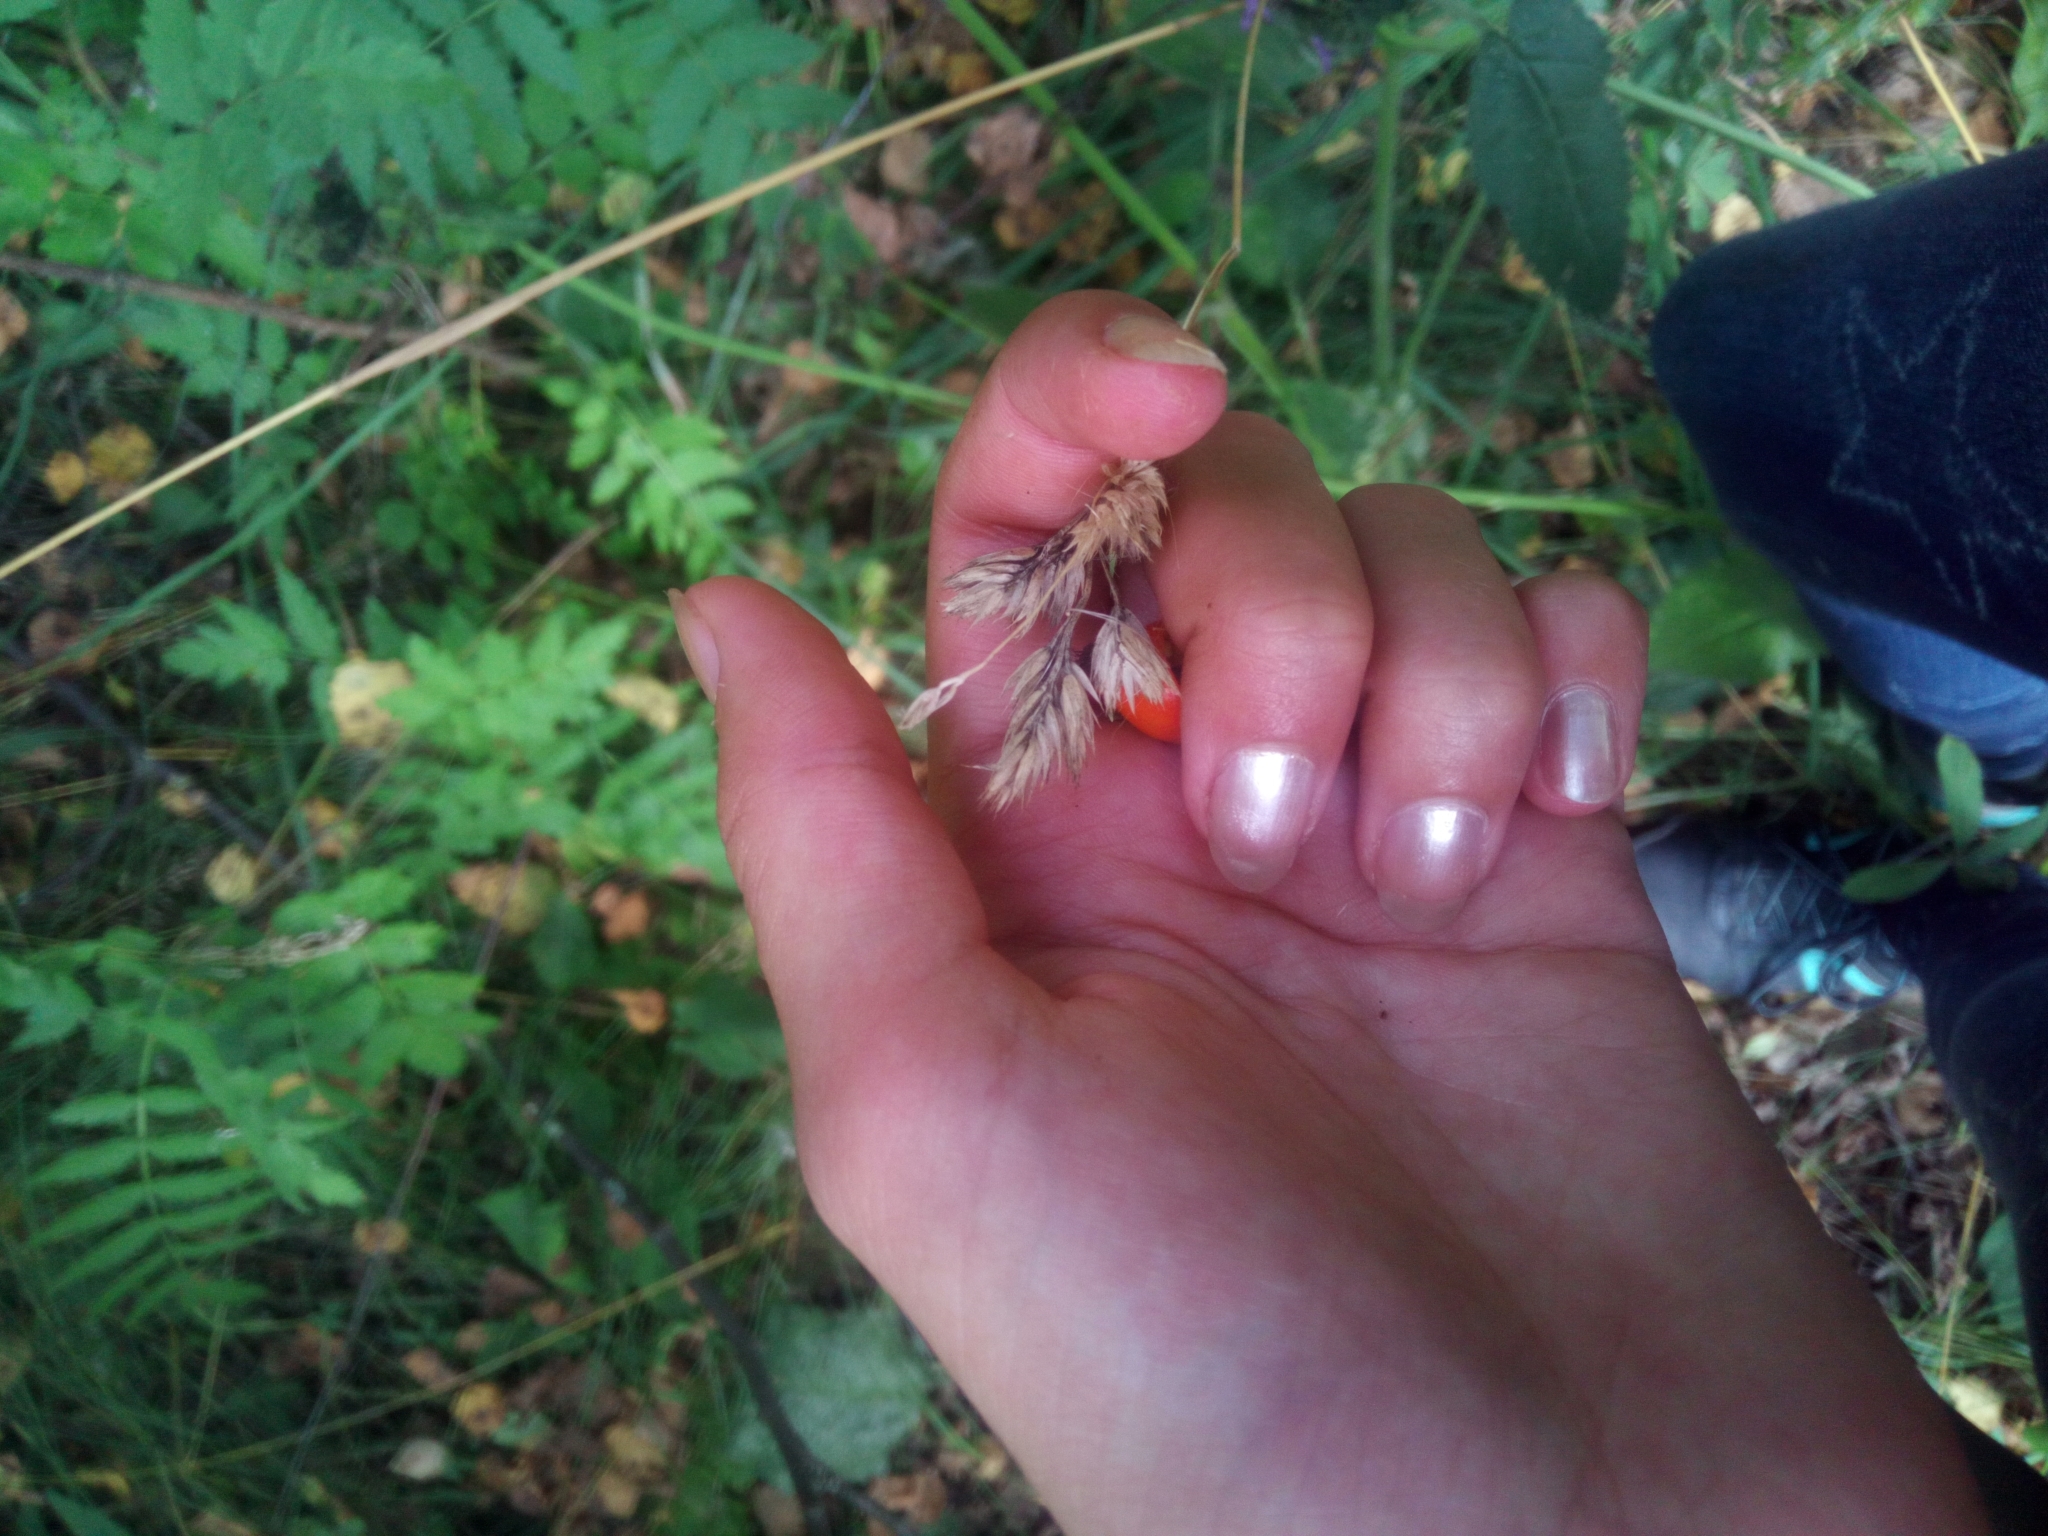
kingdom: Plantae
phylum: Tracheophyta
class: Liliopsida
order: Poales
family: Poaceae
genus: Dactylis
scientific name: Dactylis glomerata
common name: Orchardgrass
